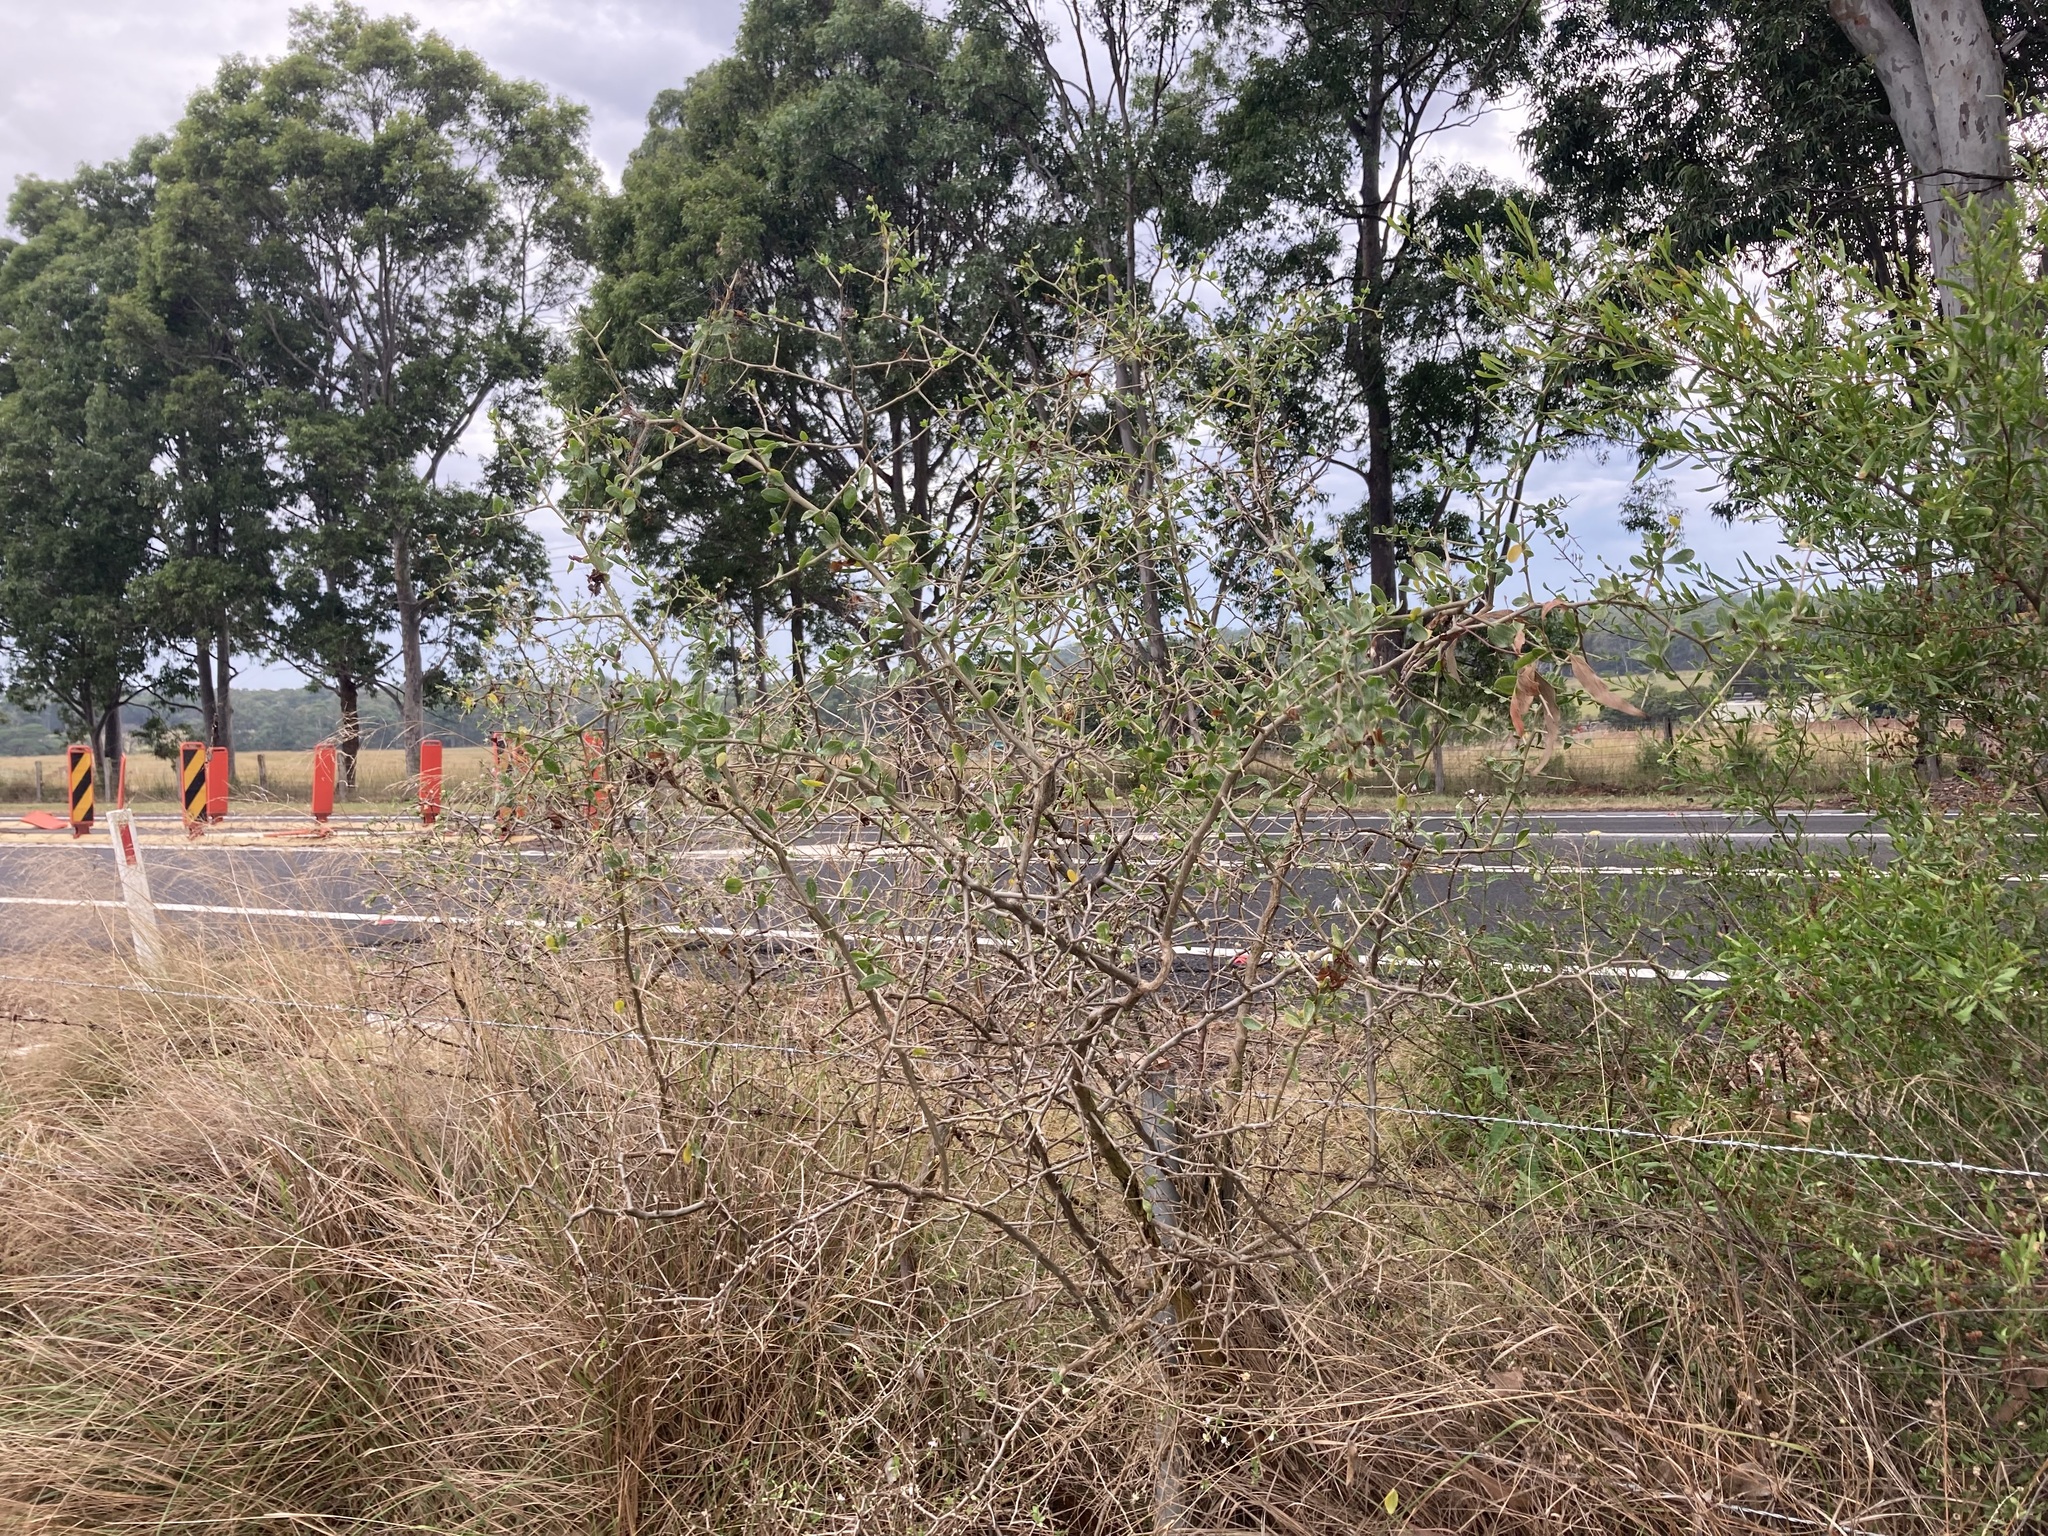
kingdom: Plantae
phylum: Tracheophyta
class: Magnoliopsida
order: Solanales
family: Solanaceae
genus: Lycium
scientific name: Lycium ferocissimum
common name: African boxthorn
